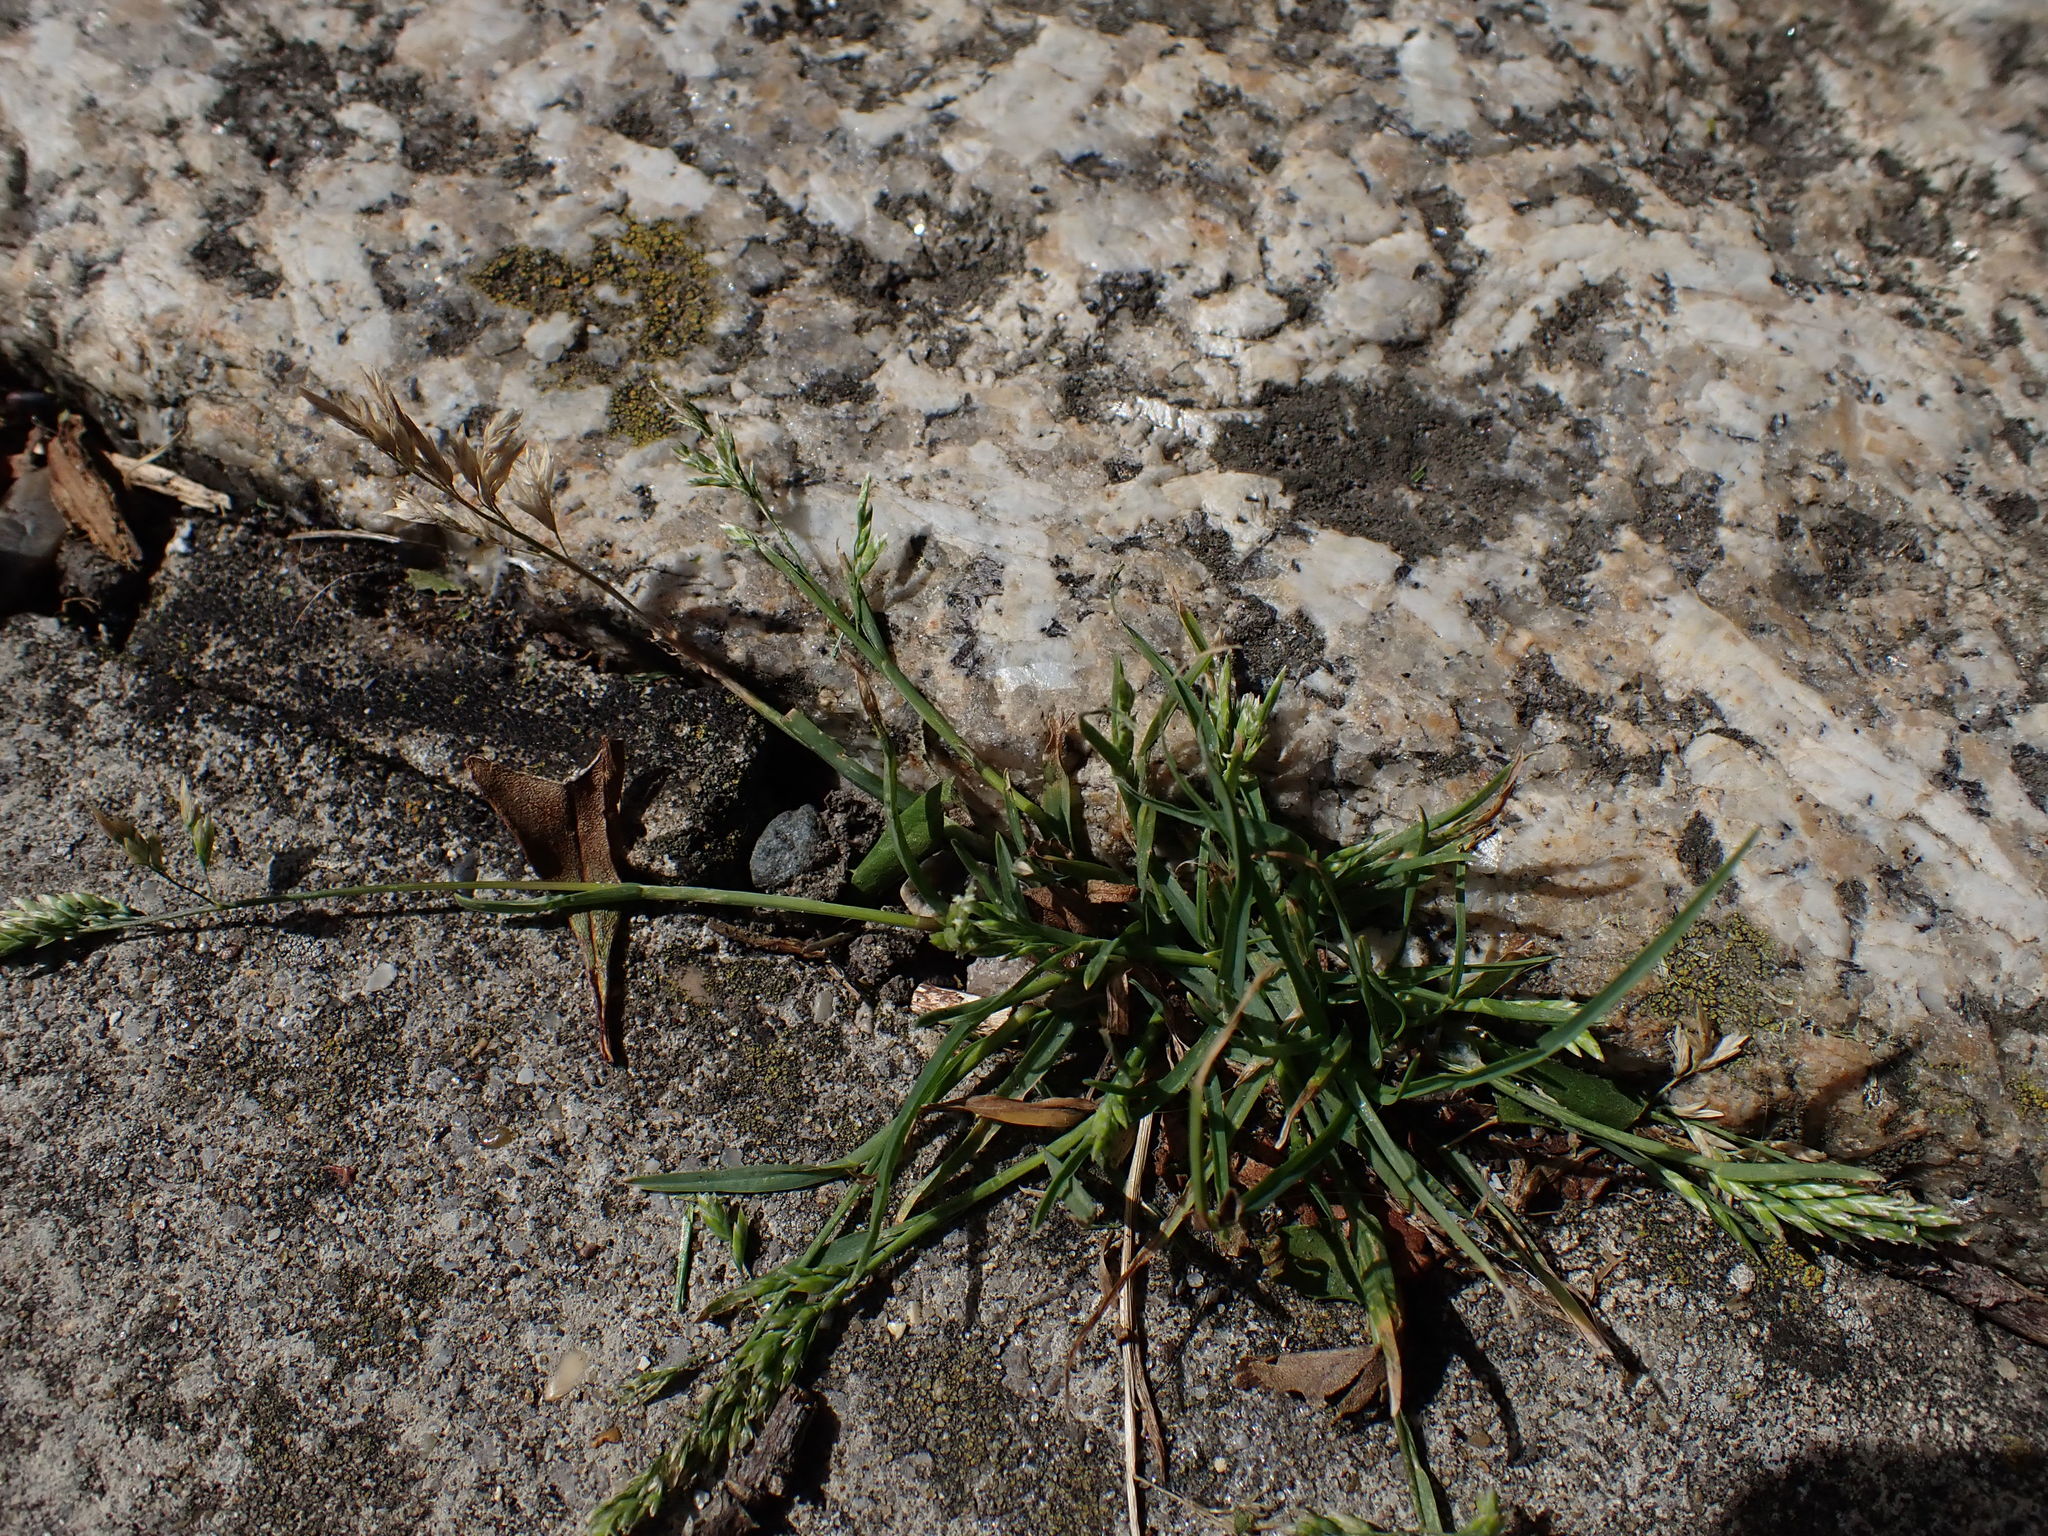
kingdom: Plantae
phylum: Tracheophyta
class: Liliopsida
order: Poales
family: Poaceae
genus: Poa
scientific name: Poa annua
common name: Annual bluegrass
